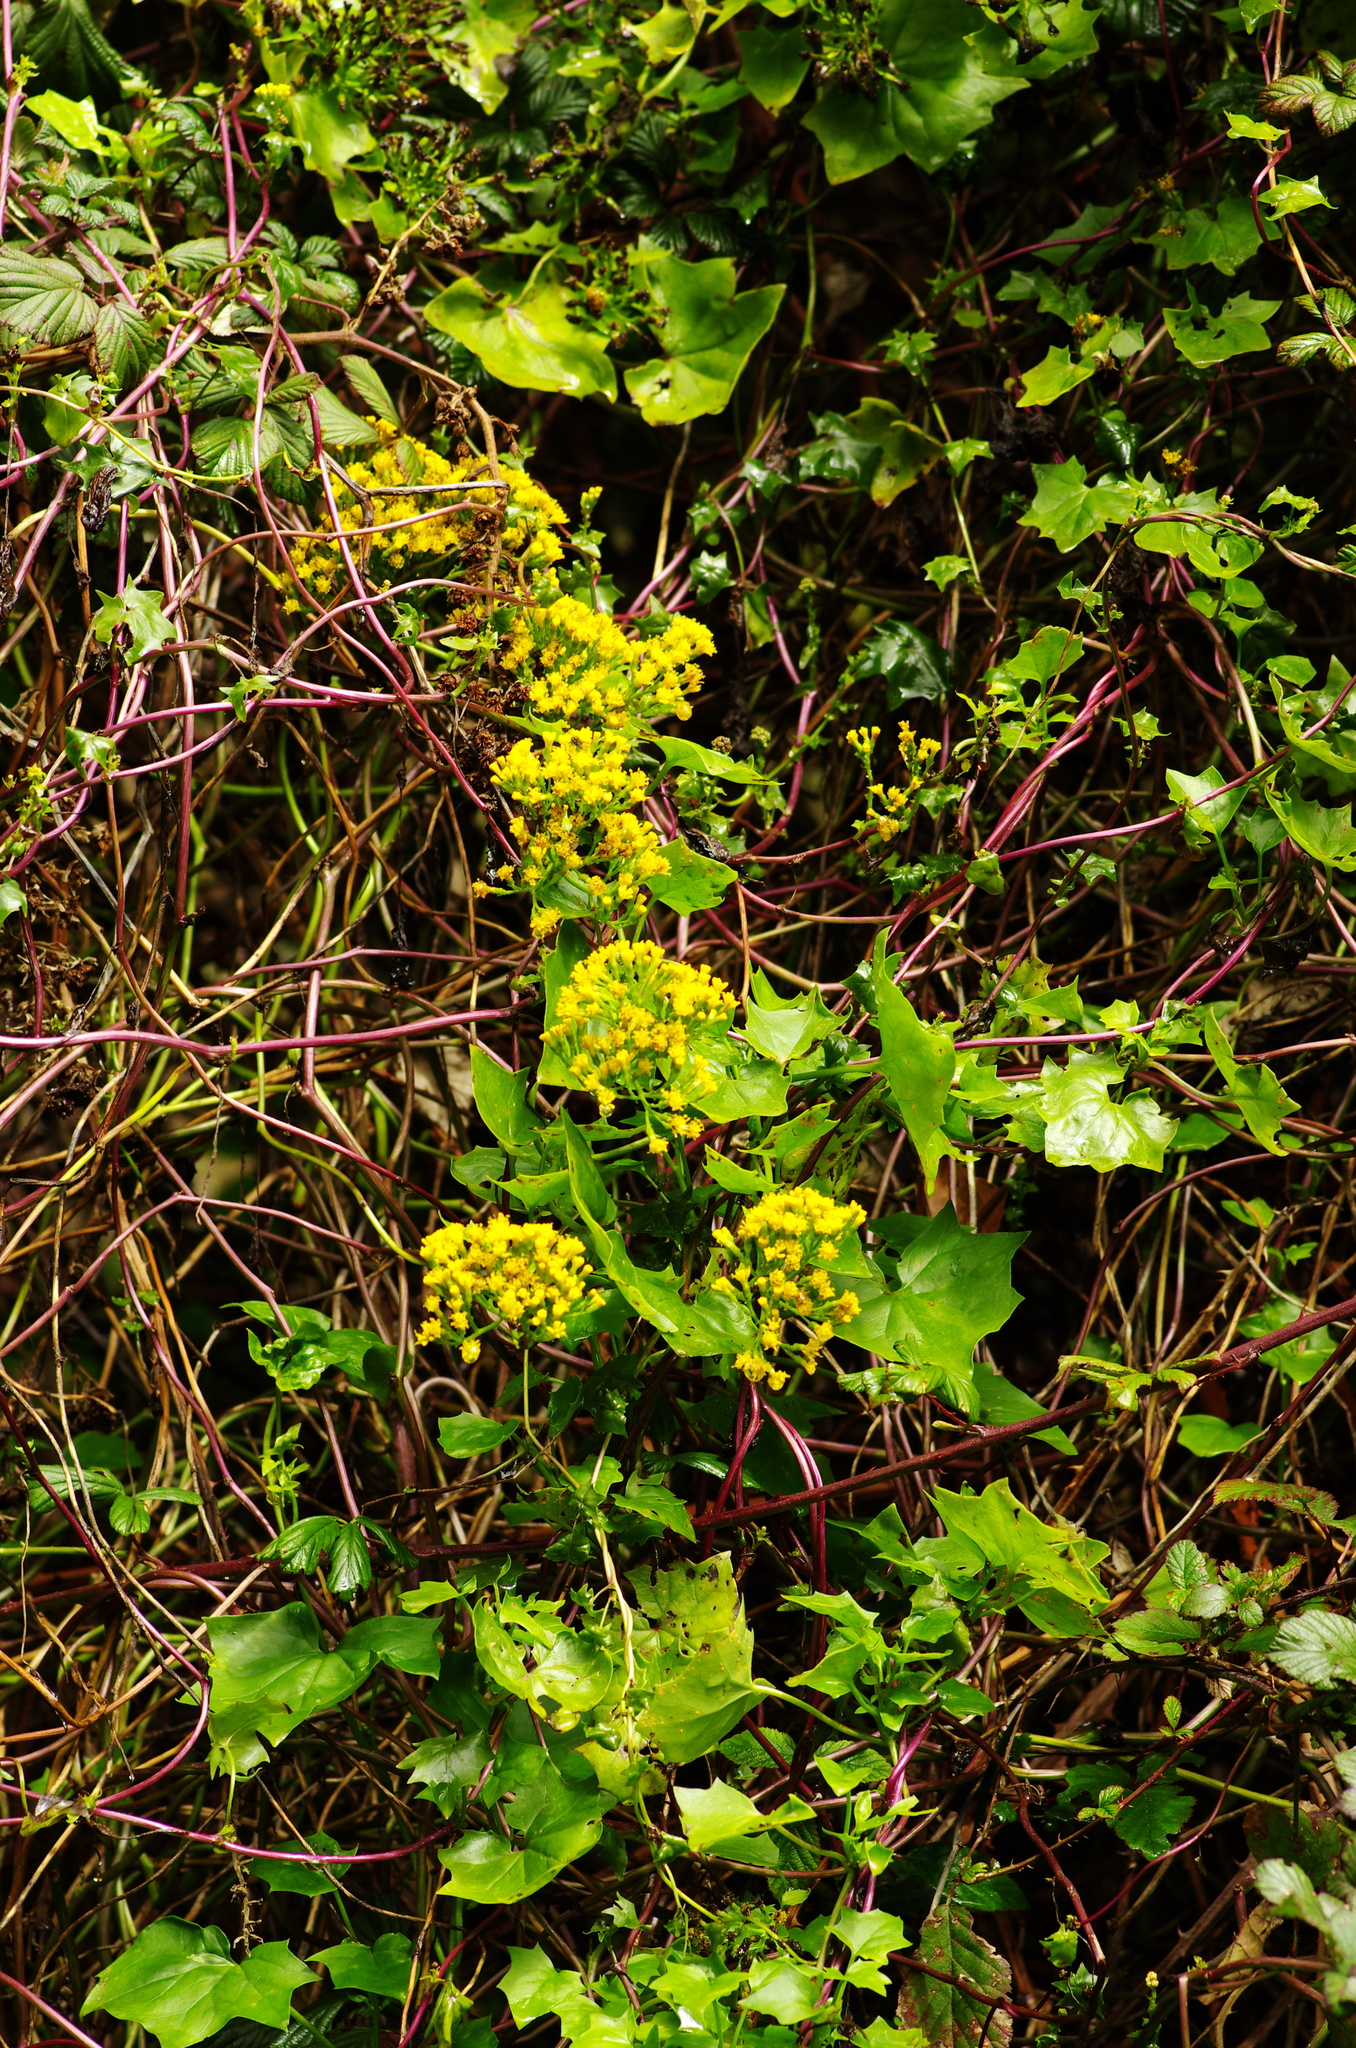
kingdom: Plantae
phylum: Tracheophyta
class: Magnoliopsida
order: Asterales
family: Asteraceae
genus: Delairea
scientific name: Delairea odorata
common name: Cape-ivy
